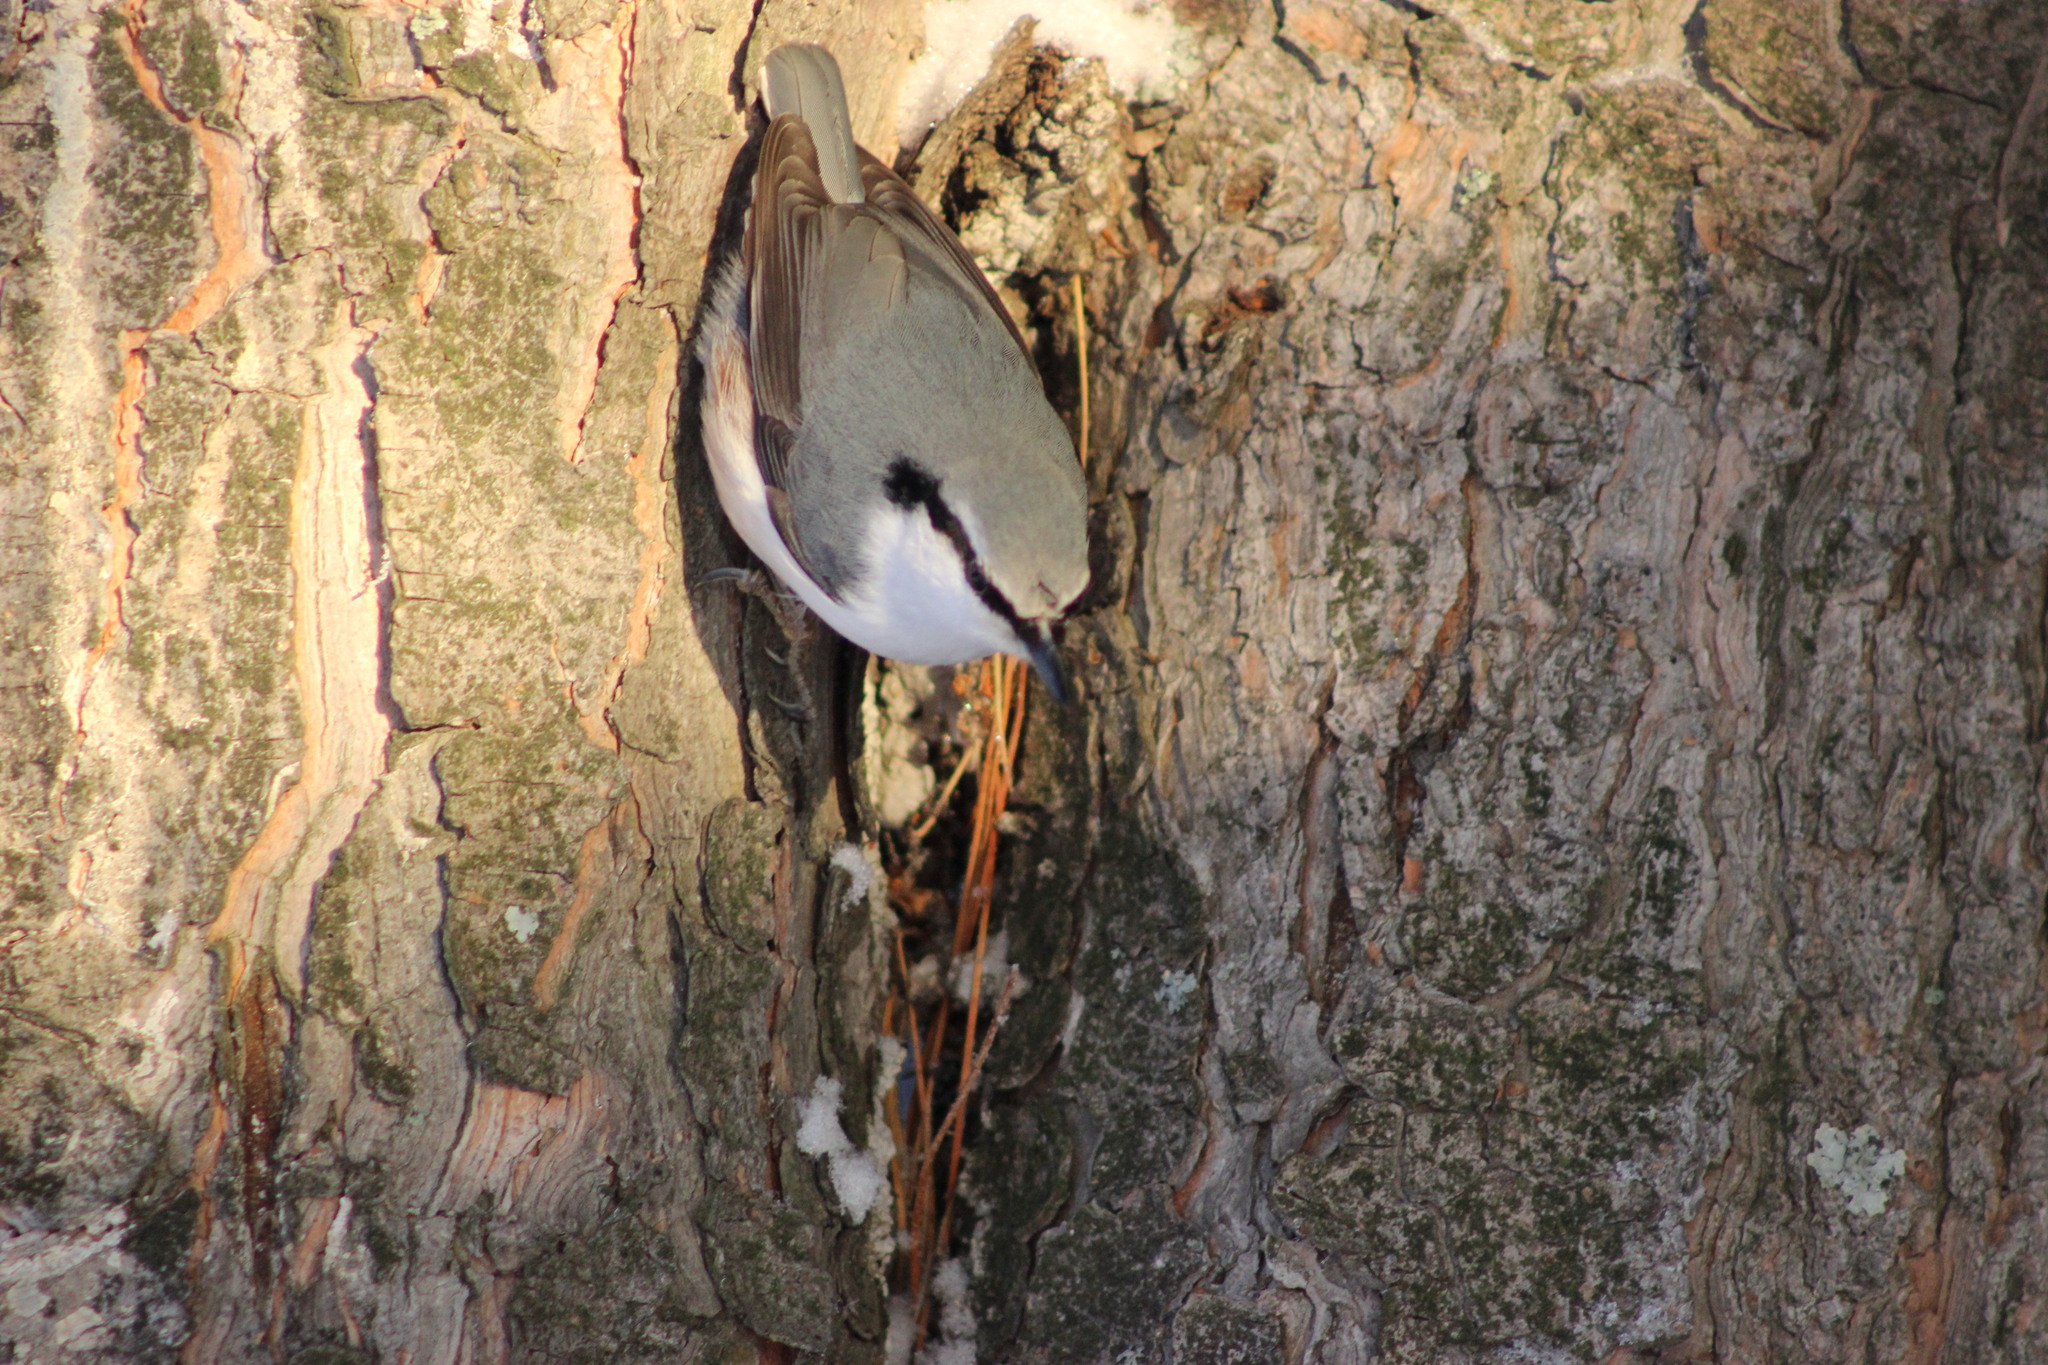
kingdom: Animalia
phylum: Chordata
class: Aves
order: Passeriformes
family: Sittidae
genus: Sitta
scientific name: Sitta europaea
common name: Eurasian nuthatch
